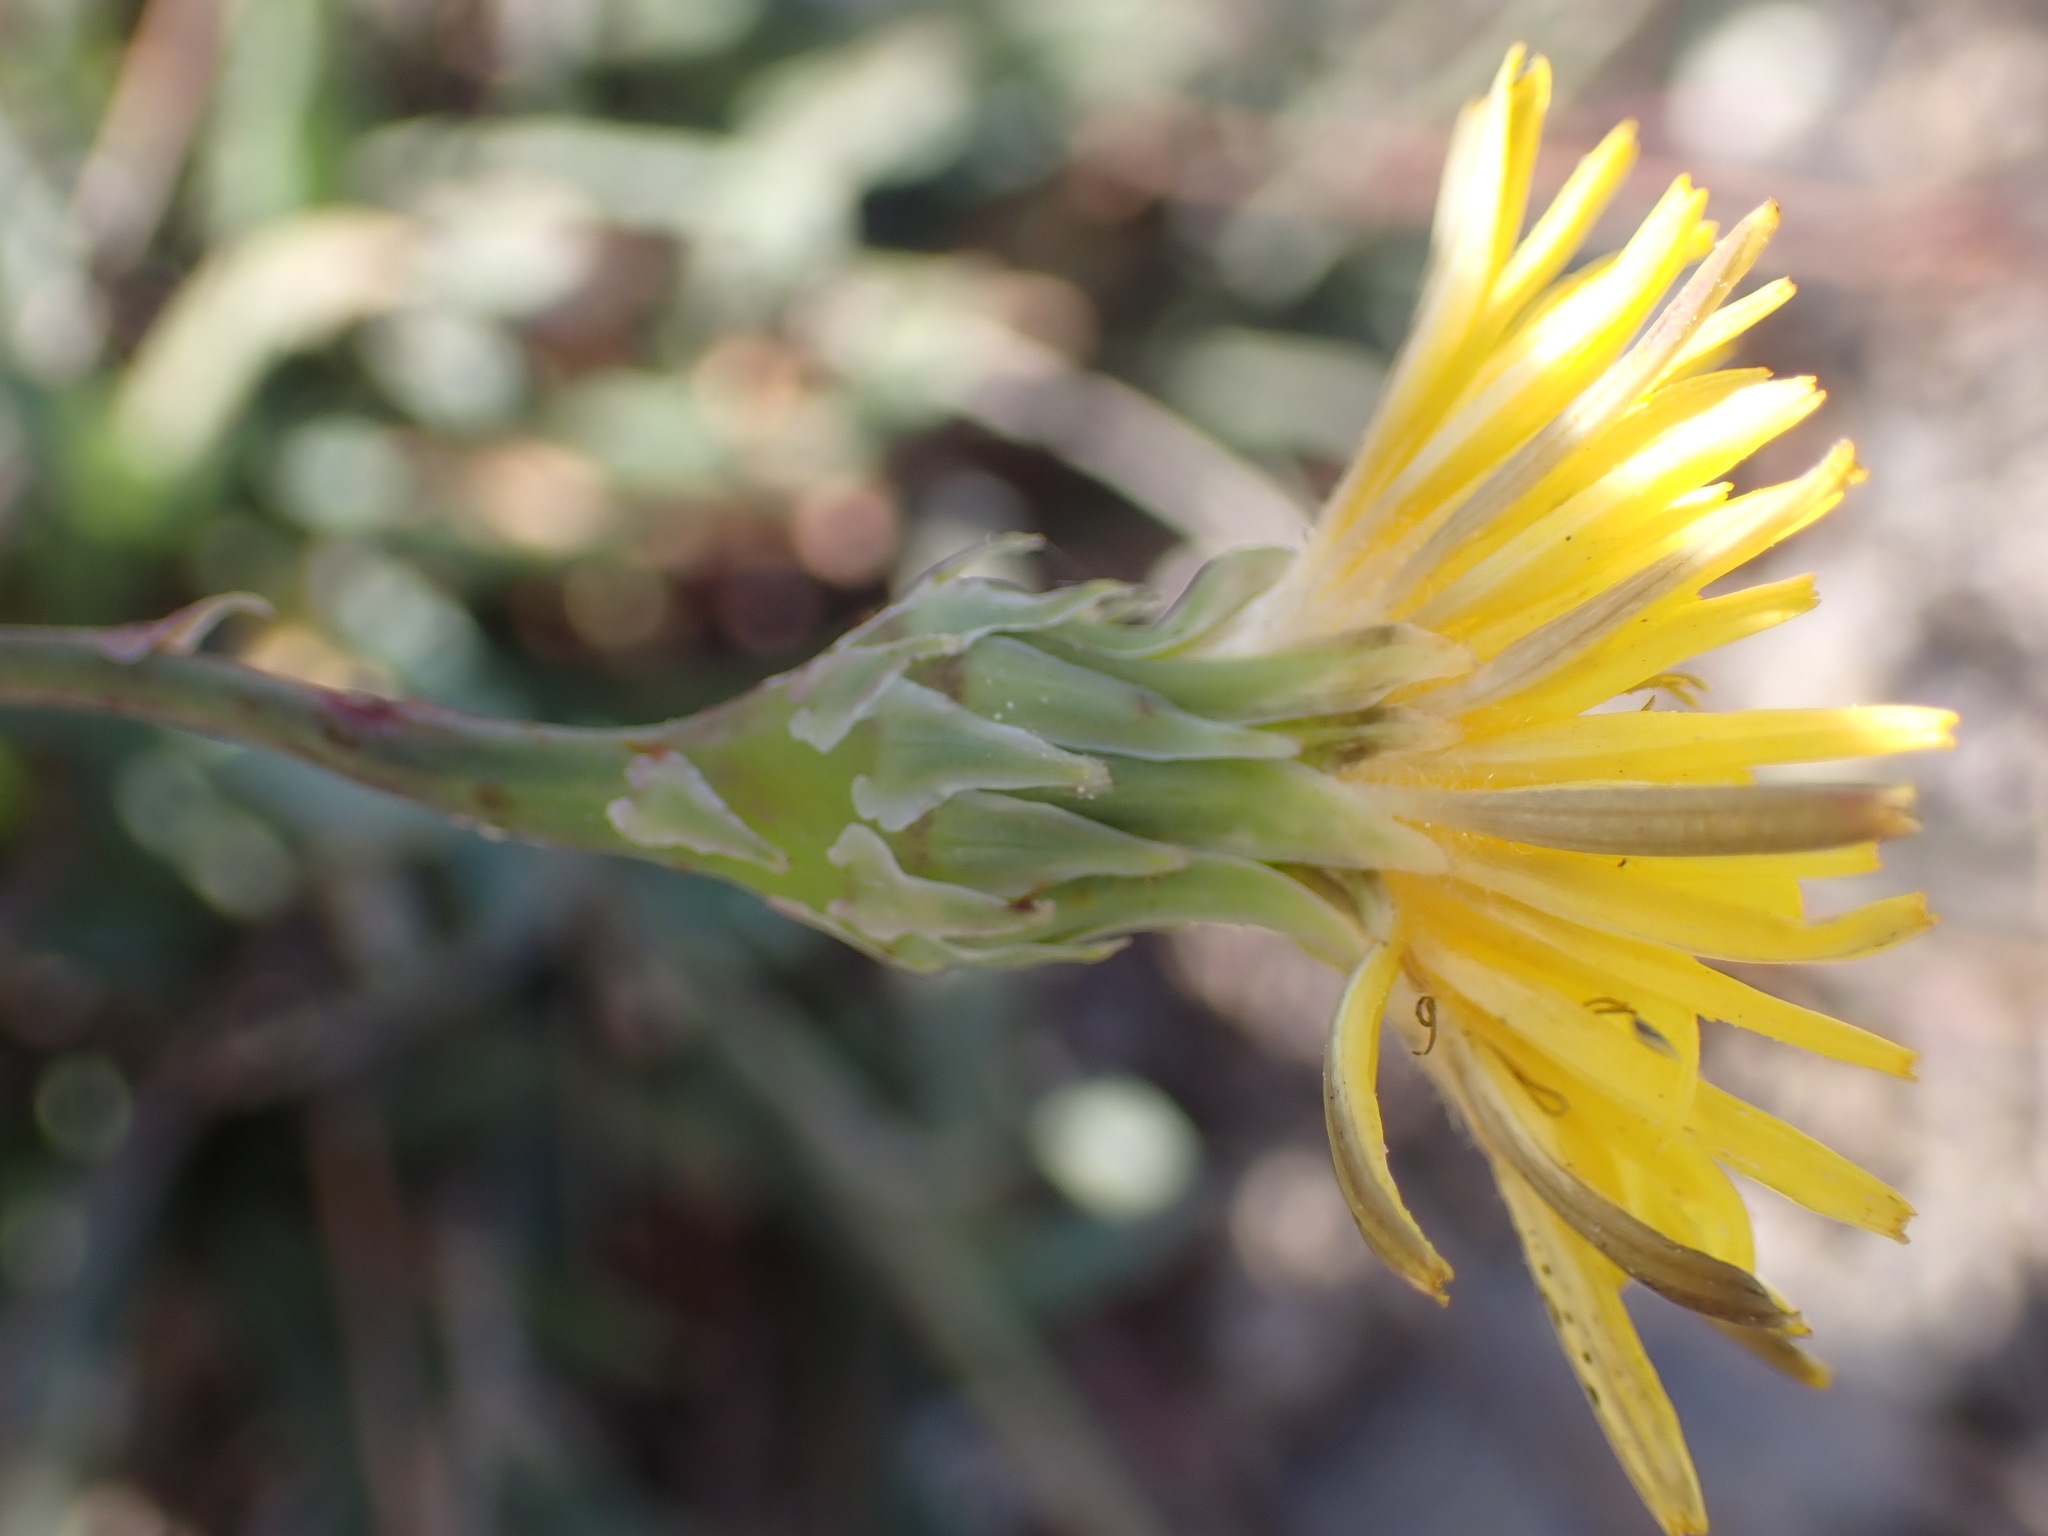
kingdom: Plantae
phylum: Tracheophyta
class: Magnoliopsida
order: Asterales
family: Asteraceae
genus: Reichardia
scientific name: Reichardia picroides
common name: Common brighteyes
